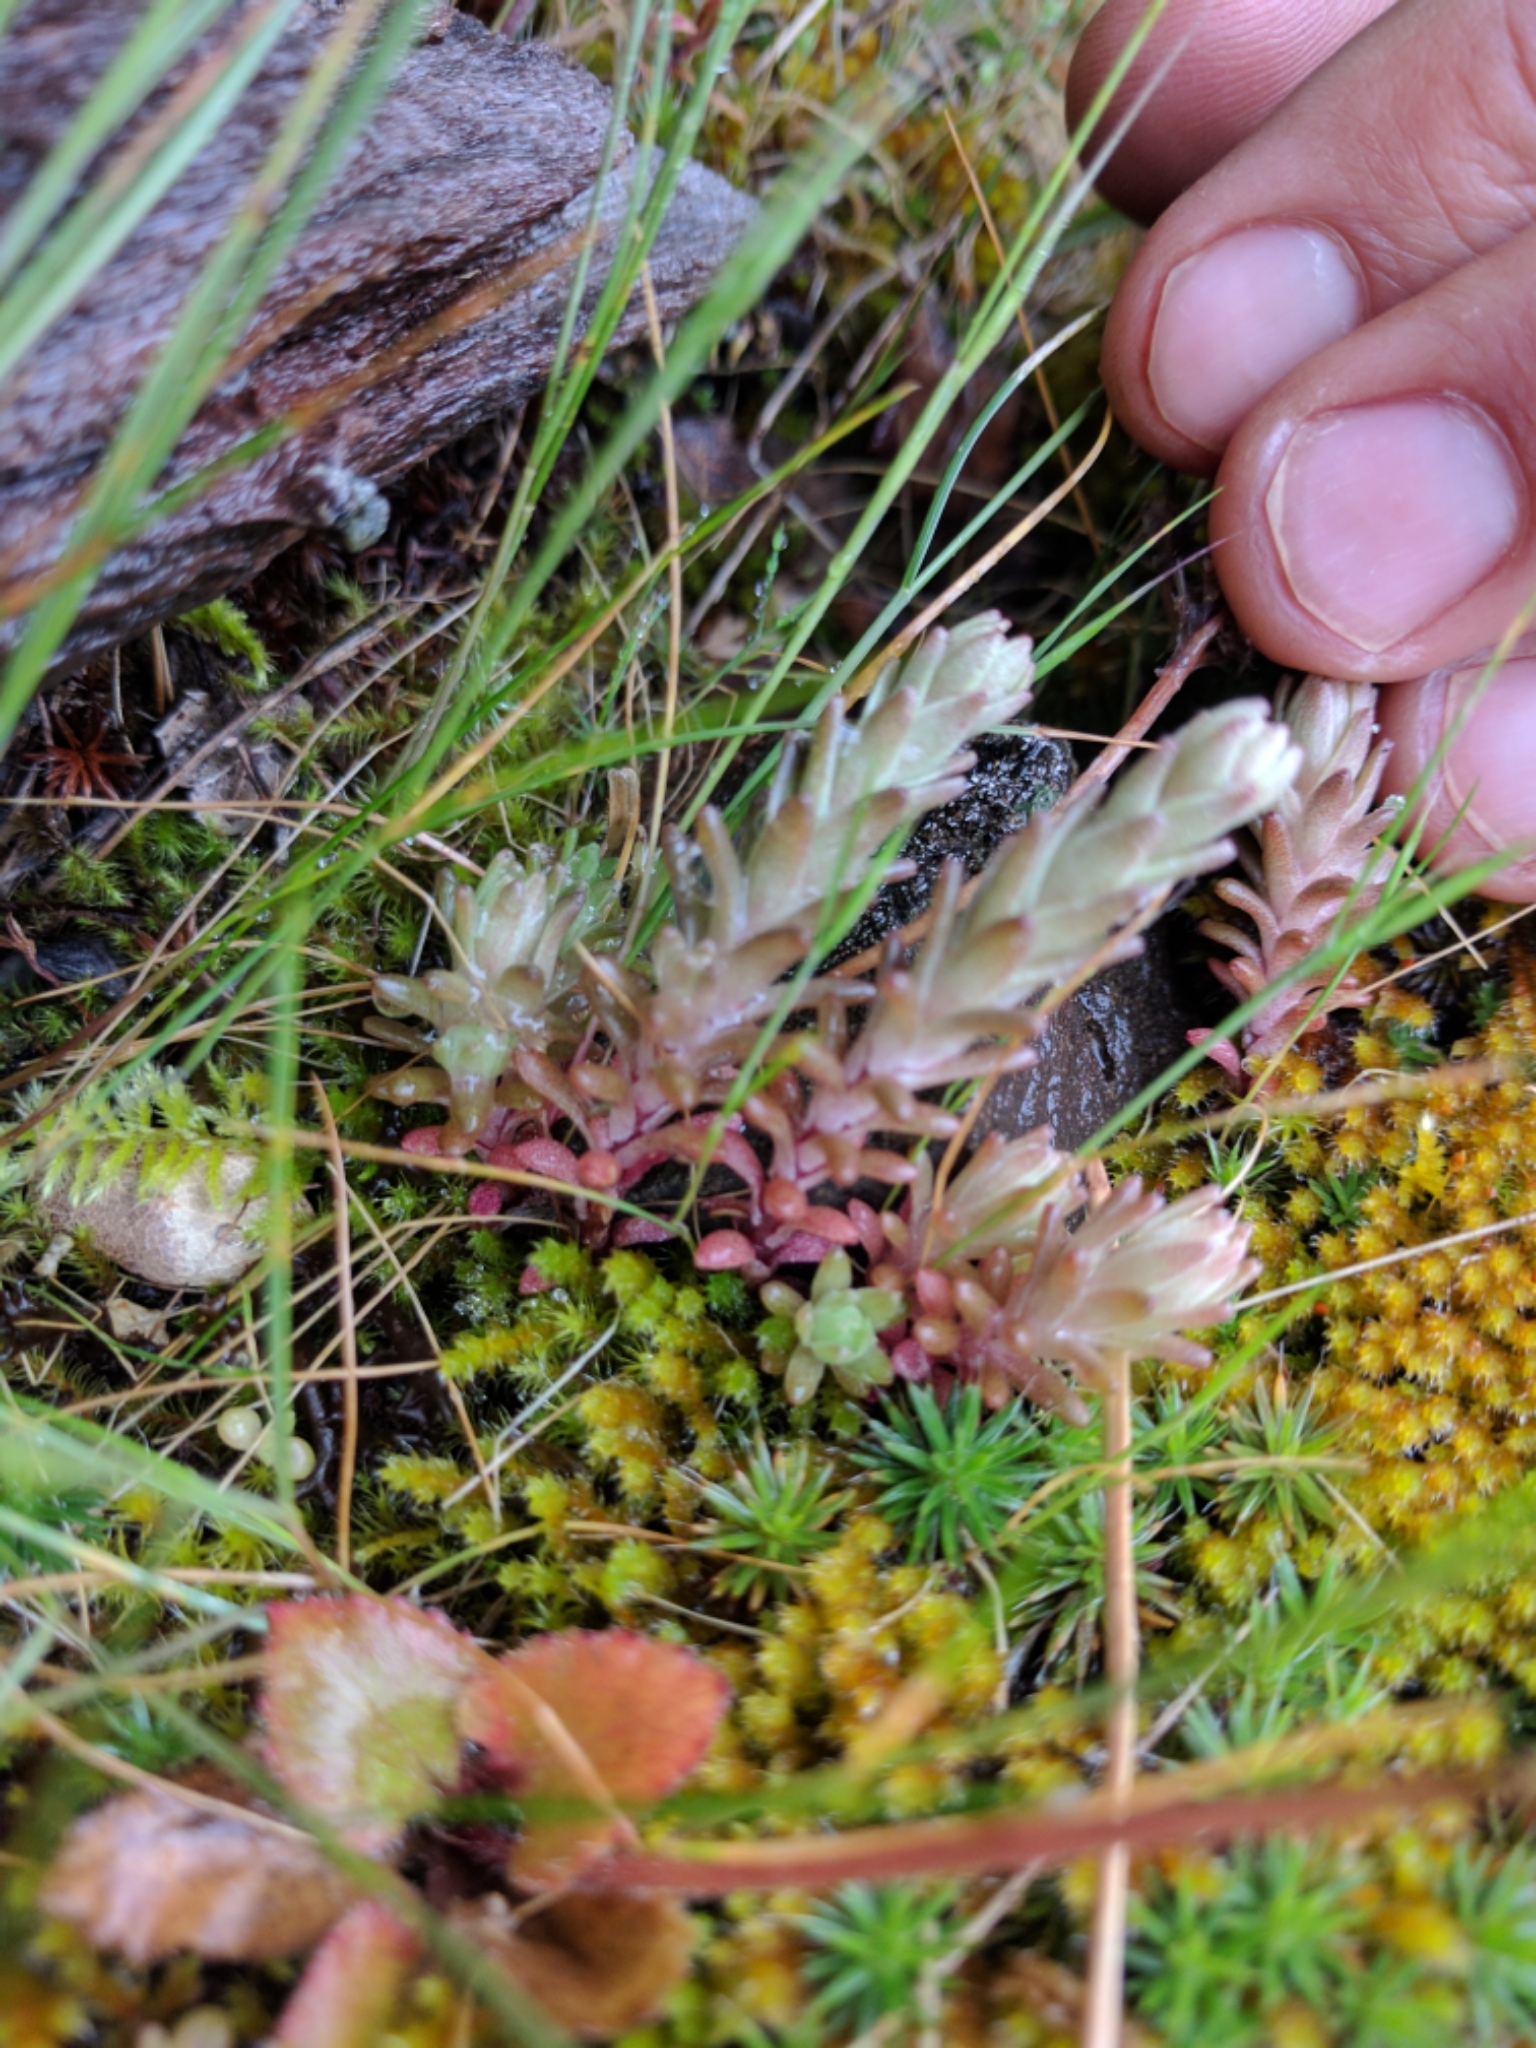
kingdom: Plantae
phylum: Tracheophyta
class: Magnoliopsida
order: Saxifragales
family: Crassulaceae
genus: Sedum
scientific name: Sedum radiatum
